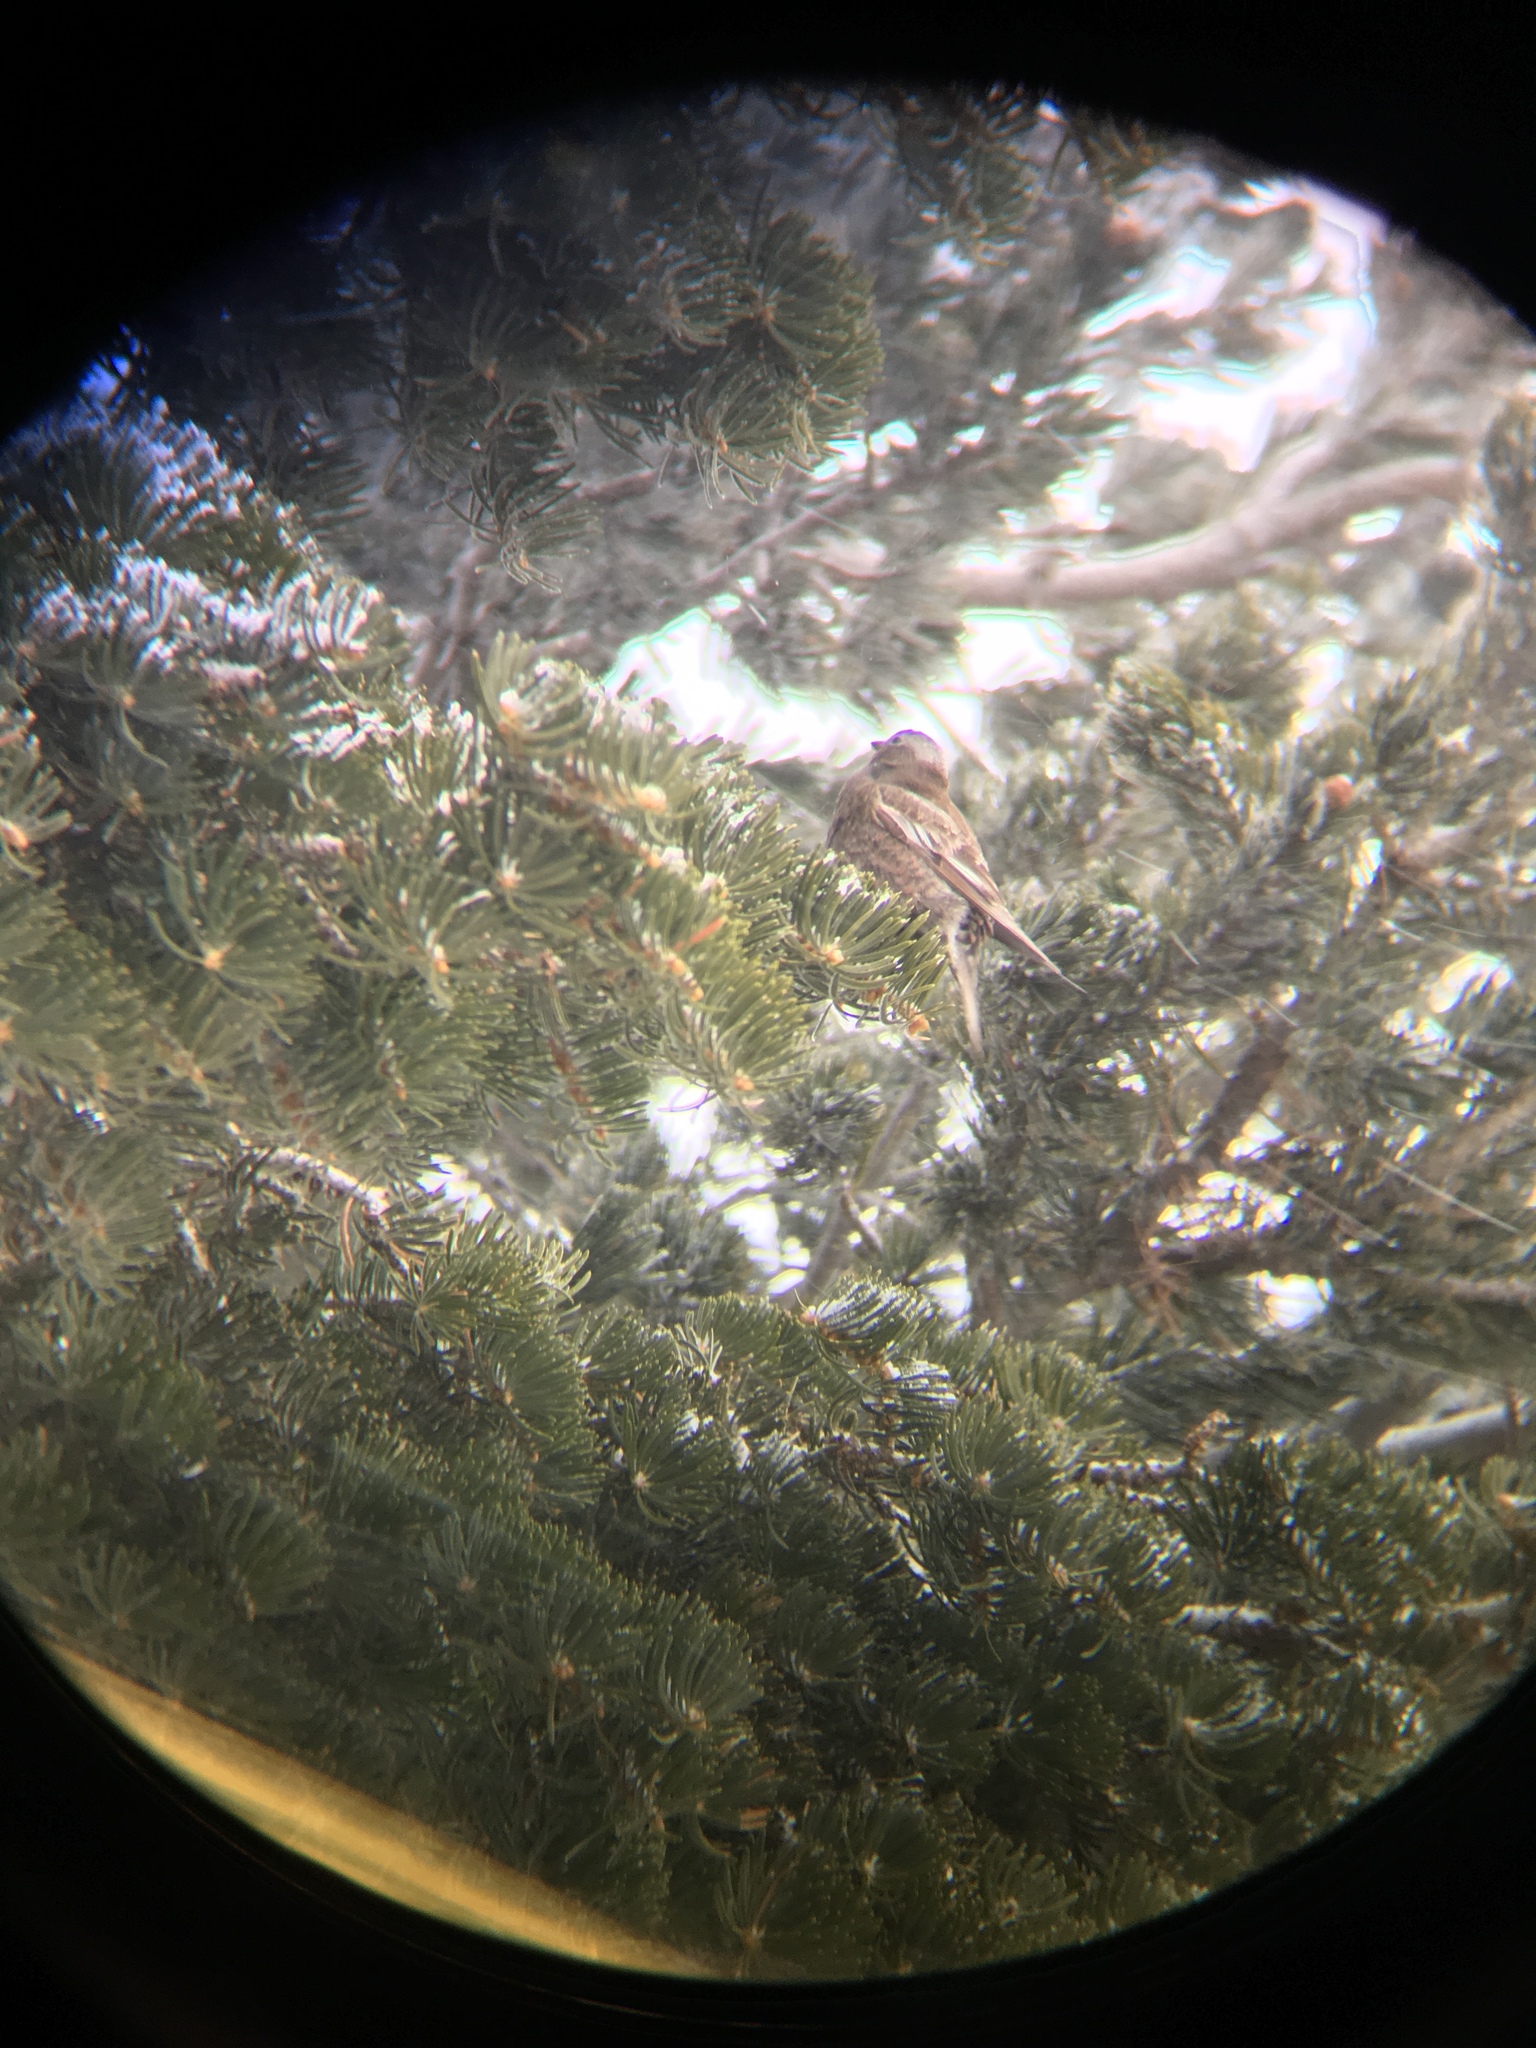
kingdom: Animalia
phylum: Chordata
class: Aves
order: Passeriformes
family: Fringillidae
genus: Leucosticte
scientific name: Leucosticte tephrocotis
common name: Gray-crowned rosy-finch
